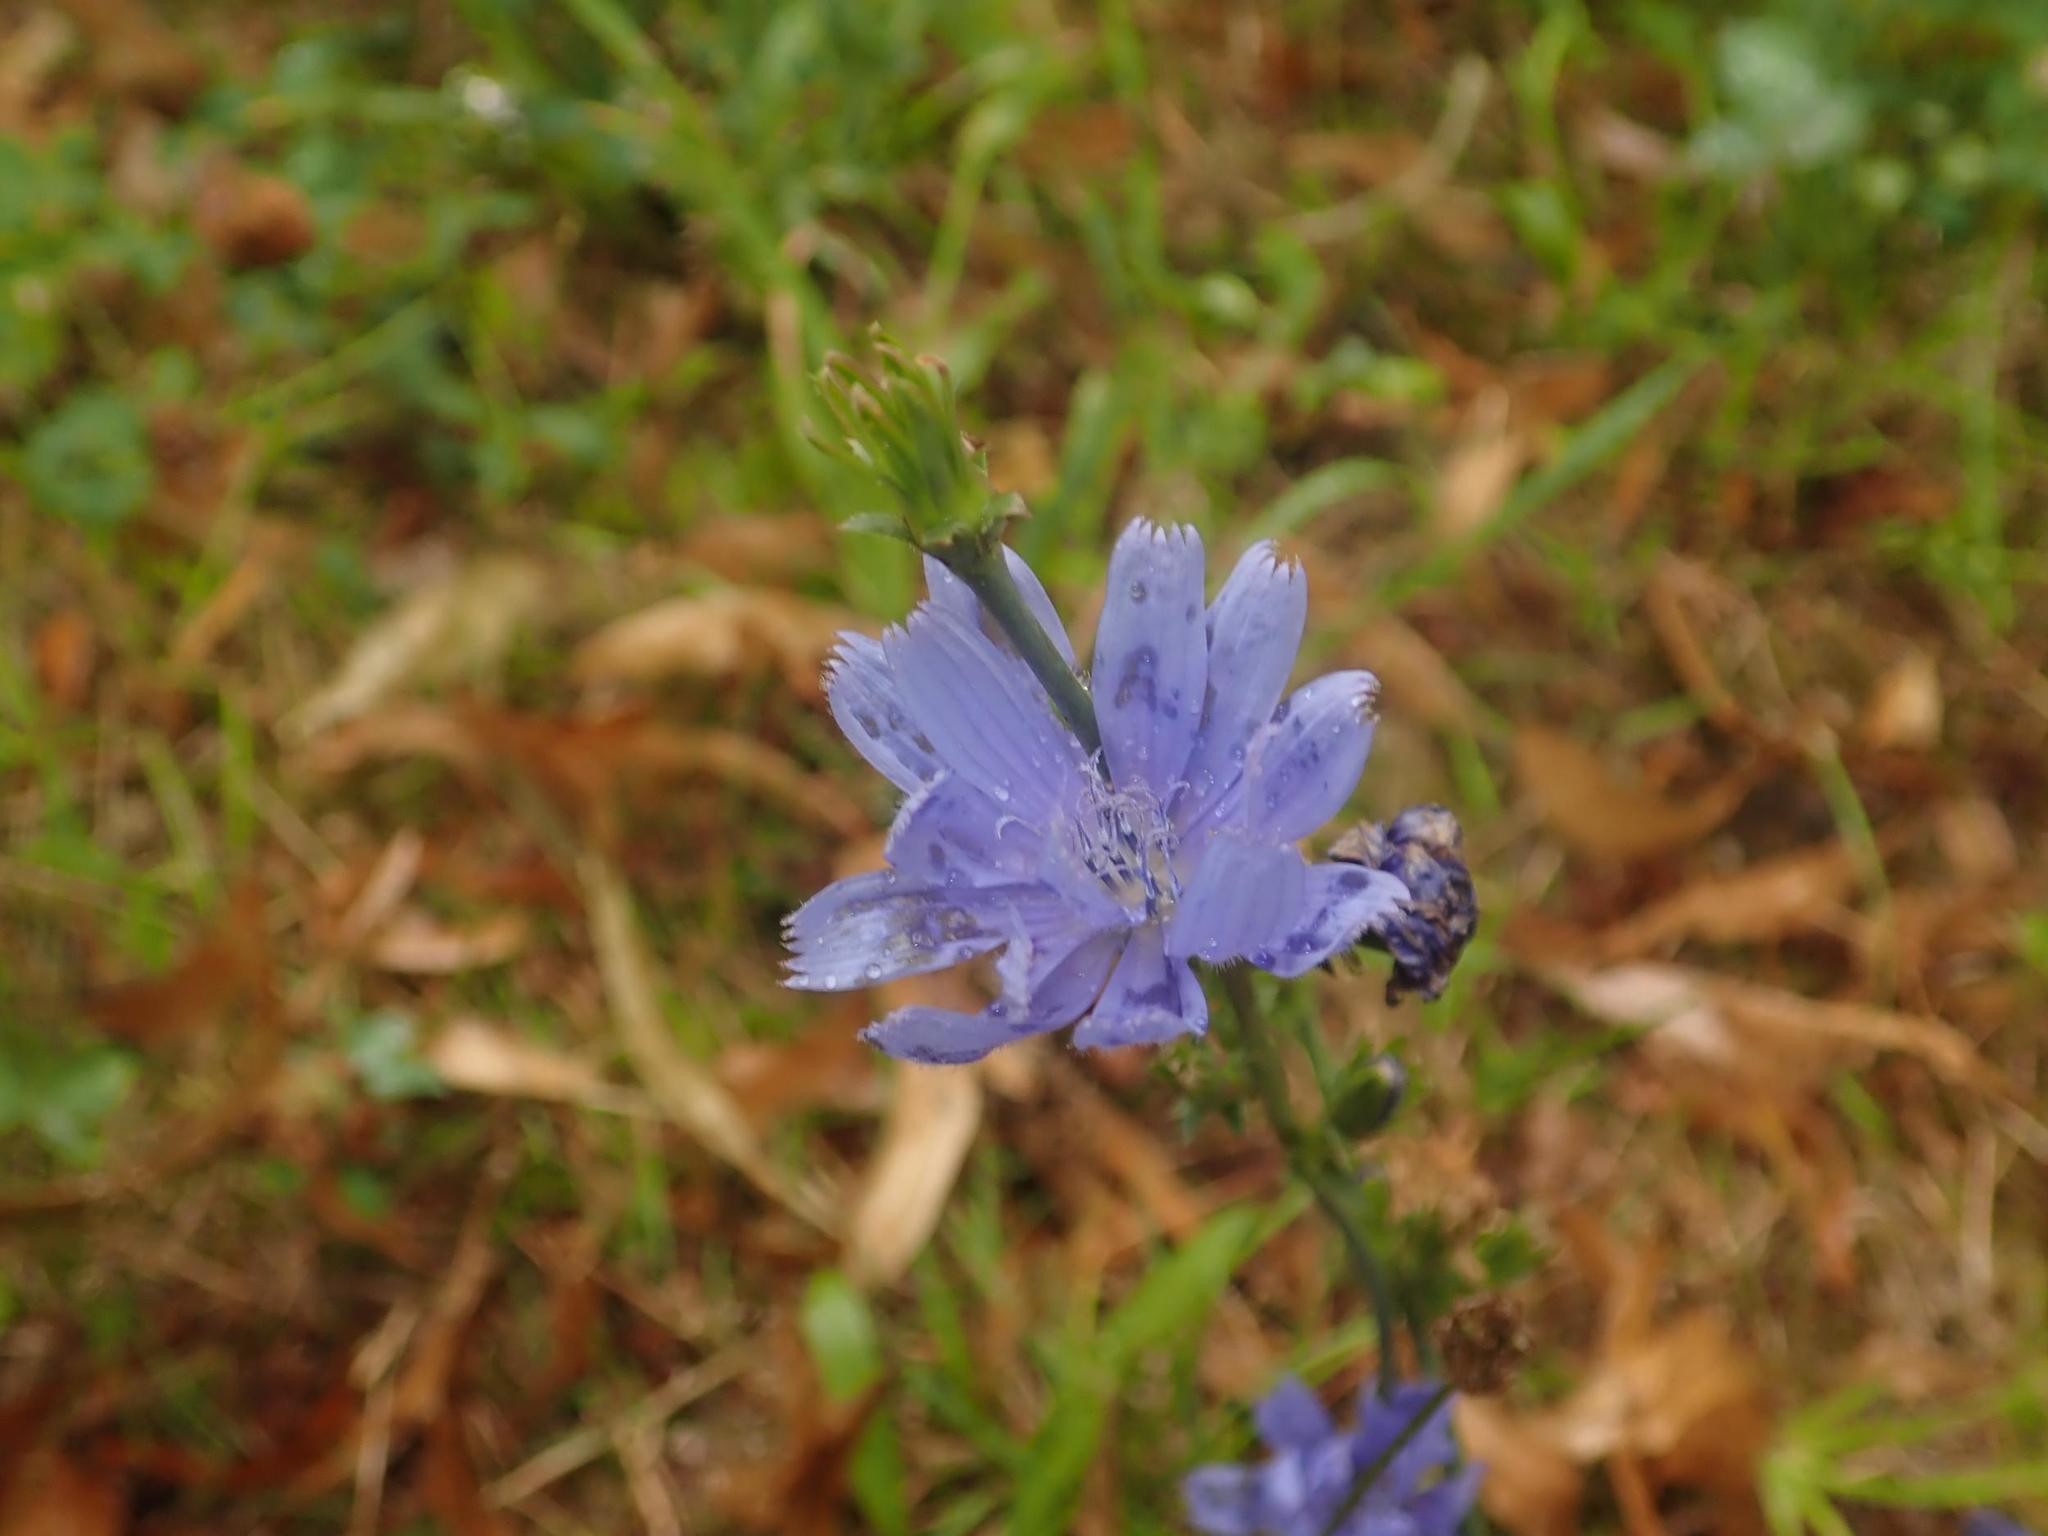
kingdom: Plantae
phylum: Tracheophyta
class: Magnoliopsida
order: Asterales
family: Asteraceae
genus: Cichorium
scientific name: Cichorium intybus
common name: Chicory
